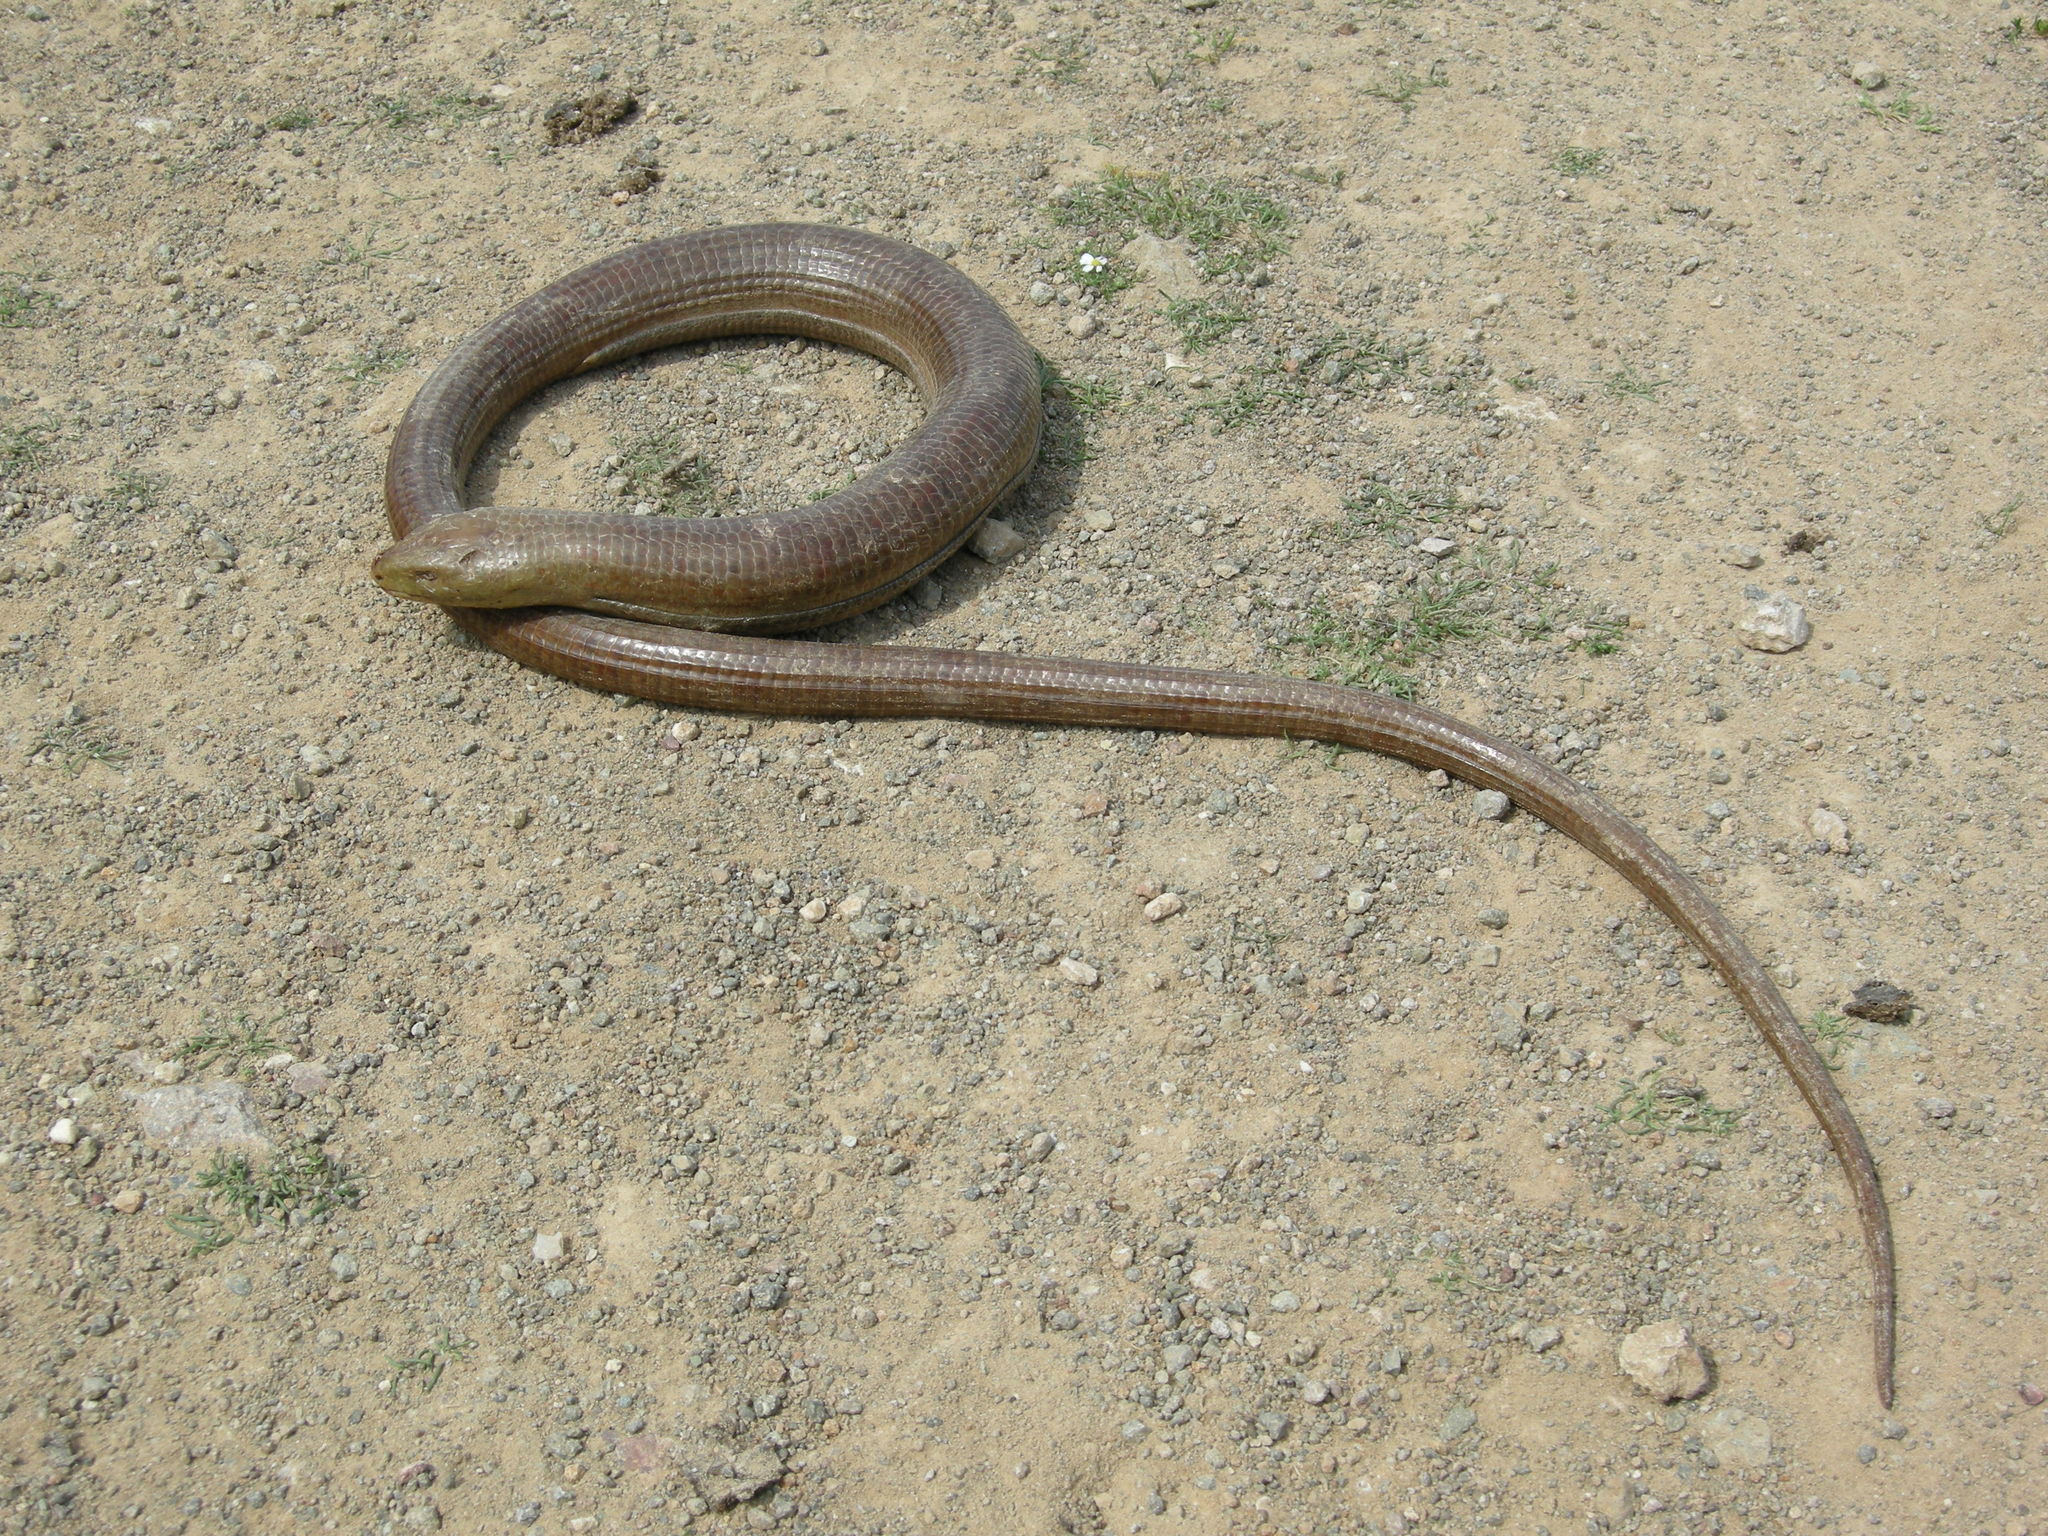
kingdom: Animalia
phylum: Chordata
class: Squamata
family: Anguidae
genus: Pseudopus
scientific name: Pseudopus apodus
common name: European glass lizard
